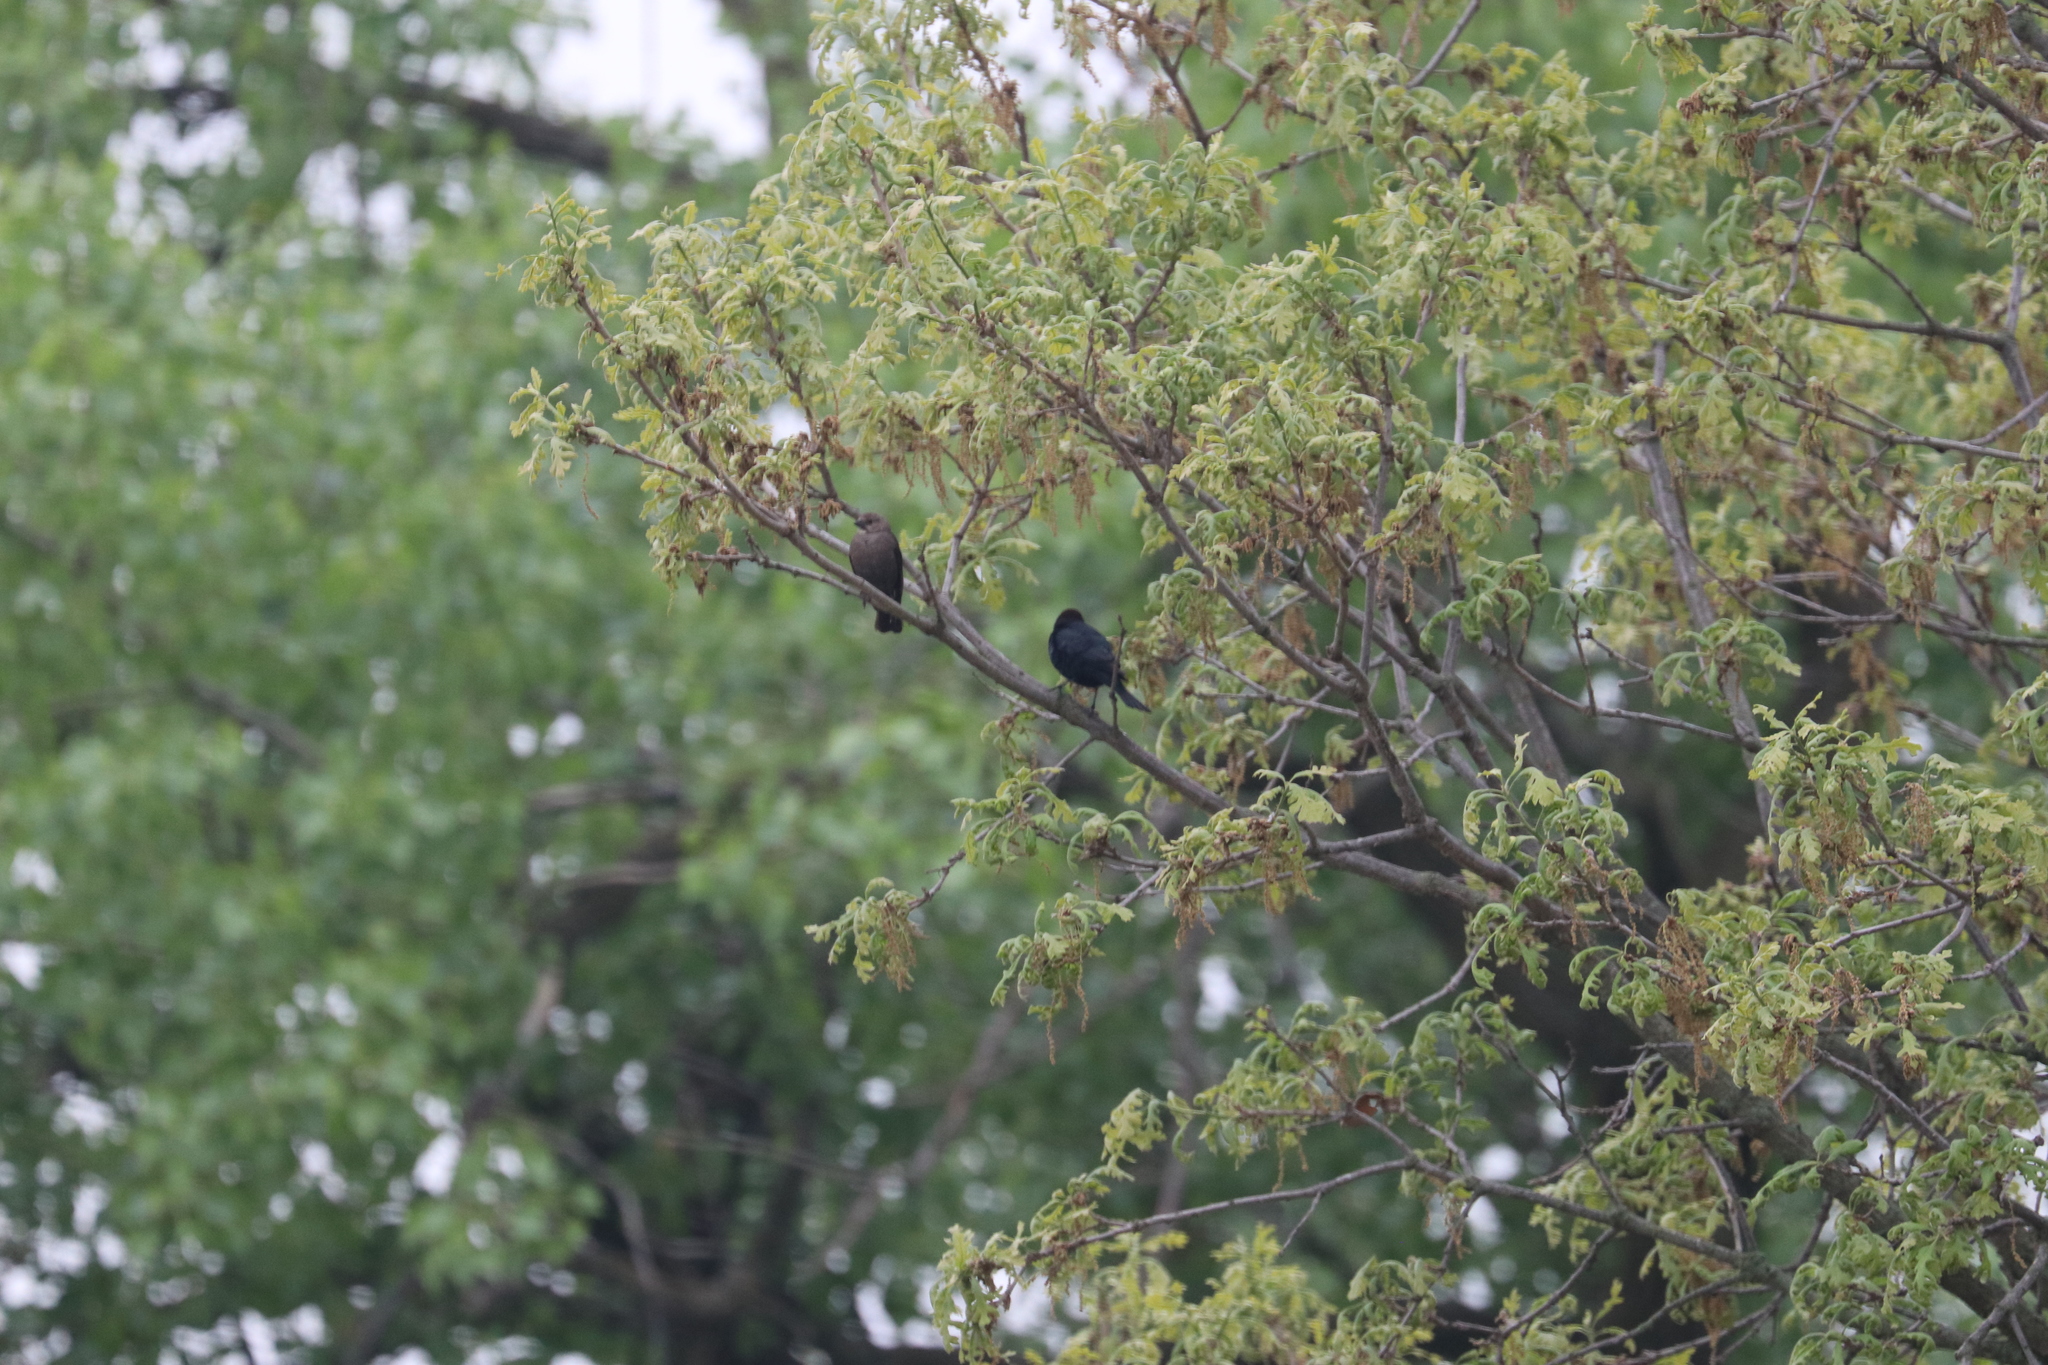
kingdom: Animalia
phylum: Chordata
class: Aves
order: Passeriformes
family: Icteridae
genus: Molothrus
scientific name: Molothrus ater
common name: Brown-headed cowbird
